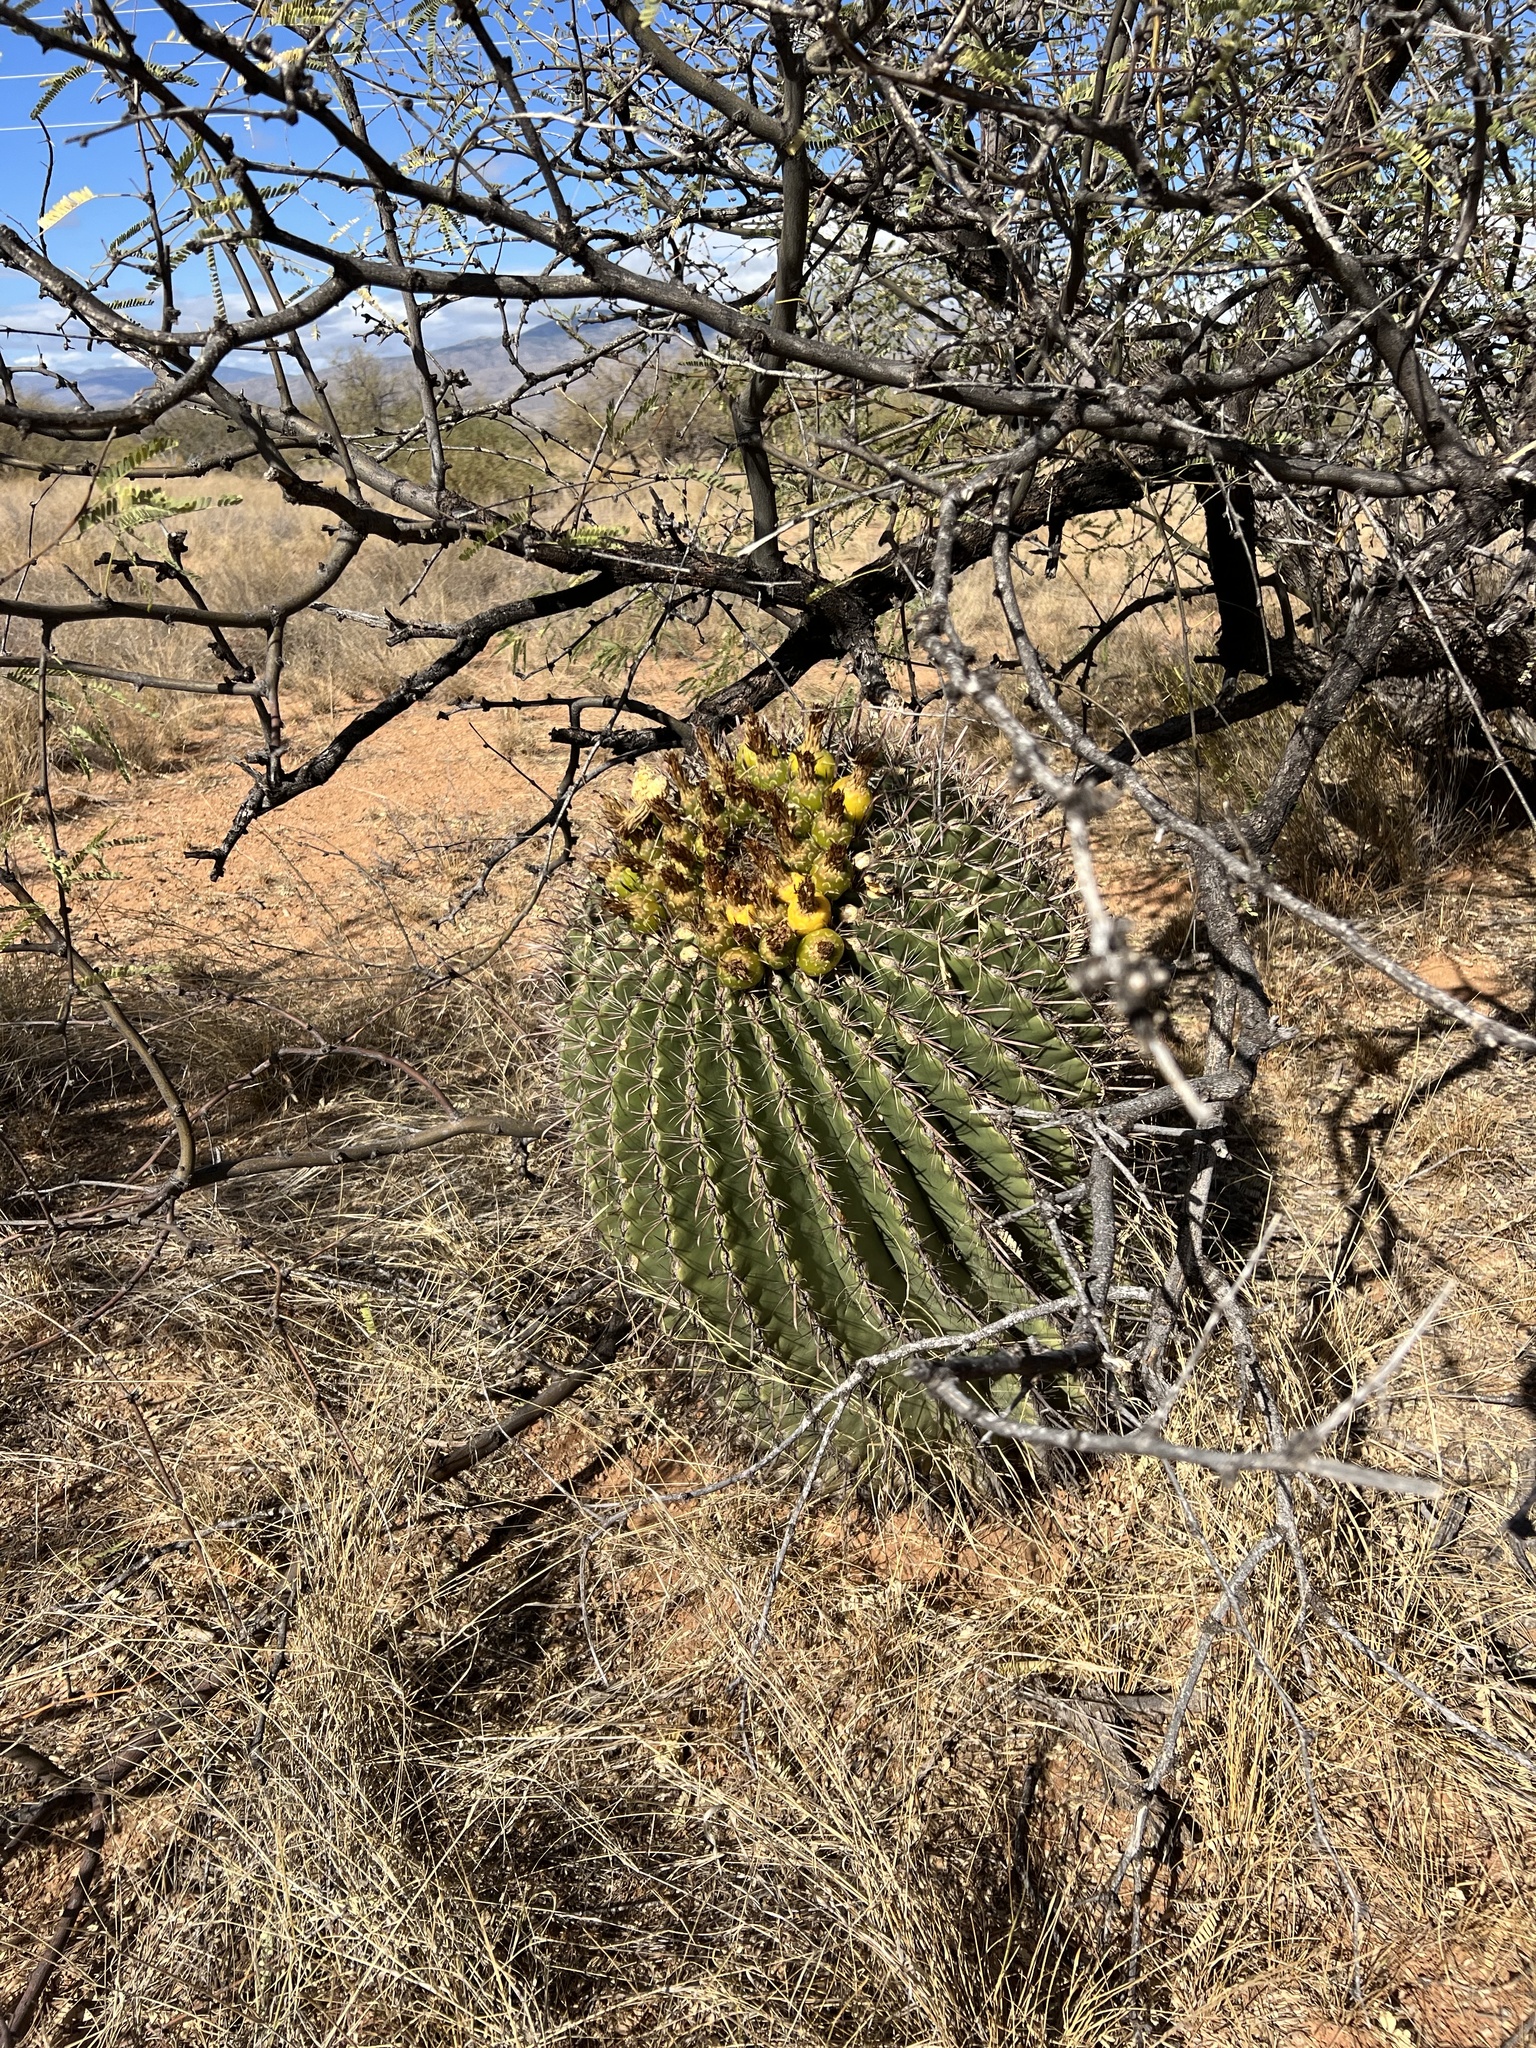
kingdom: Plantae
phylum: Tracheophyta
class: Magnoliopsida
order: Caryophyllales
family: Cactaceae
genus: Ferocactus
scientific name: Ferocactus wislizeni
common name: Candy barrel cactus
